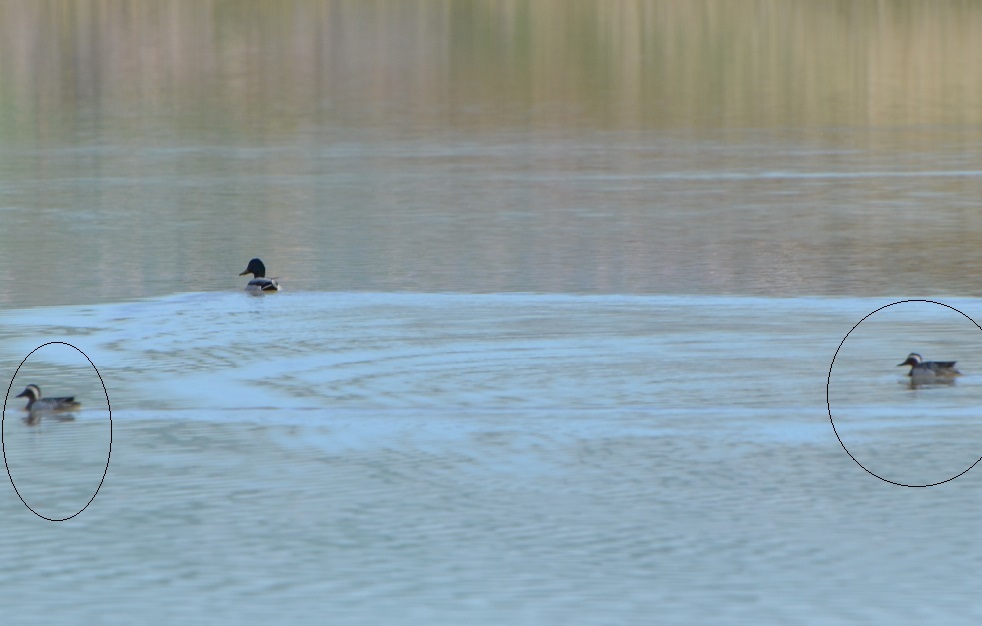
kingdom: Animalia
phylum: Chordata
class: Aves
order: Anseriformes
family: Anatidae
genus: Spatula
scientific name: Spatula querquedula
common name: Garganey
